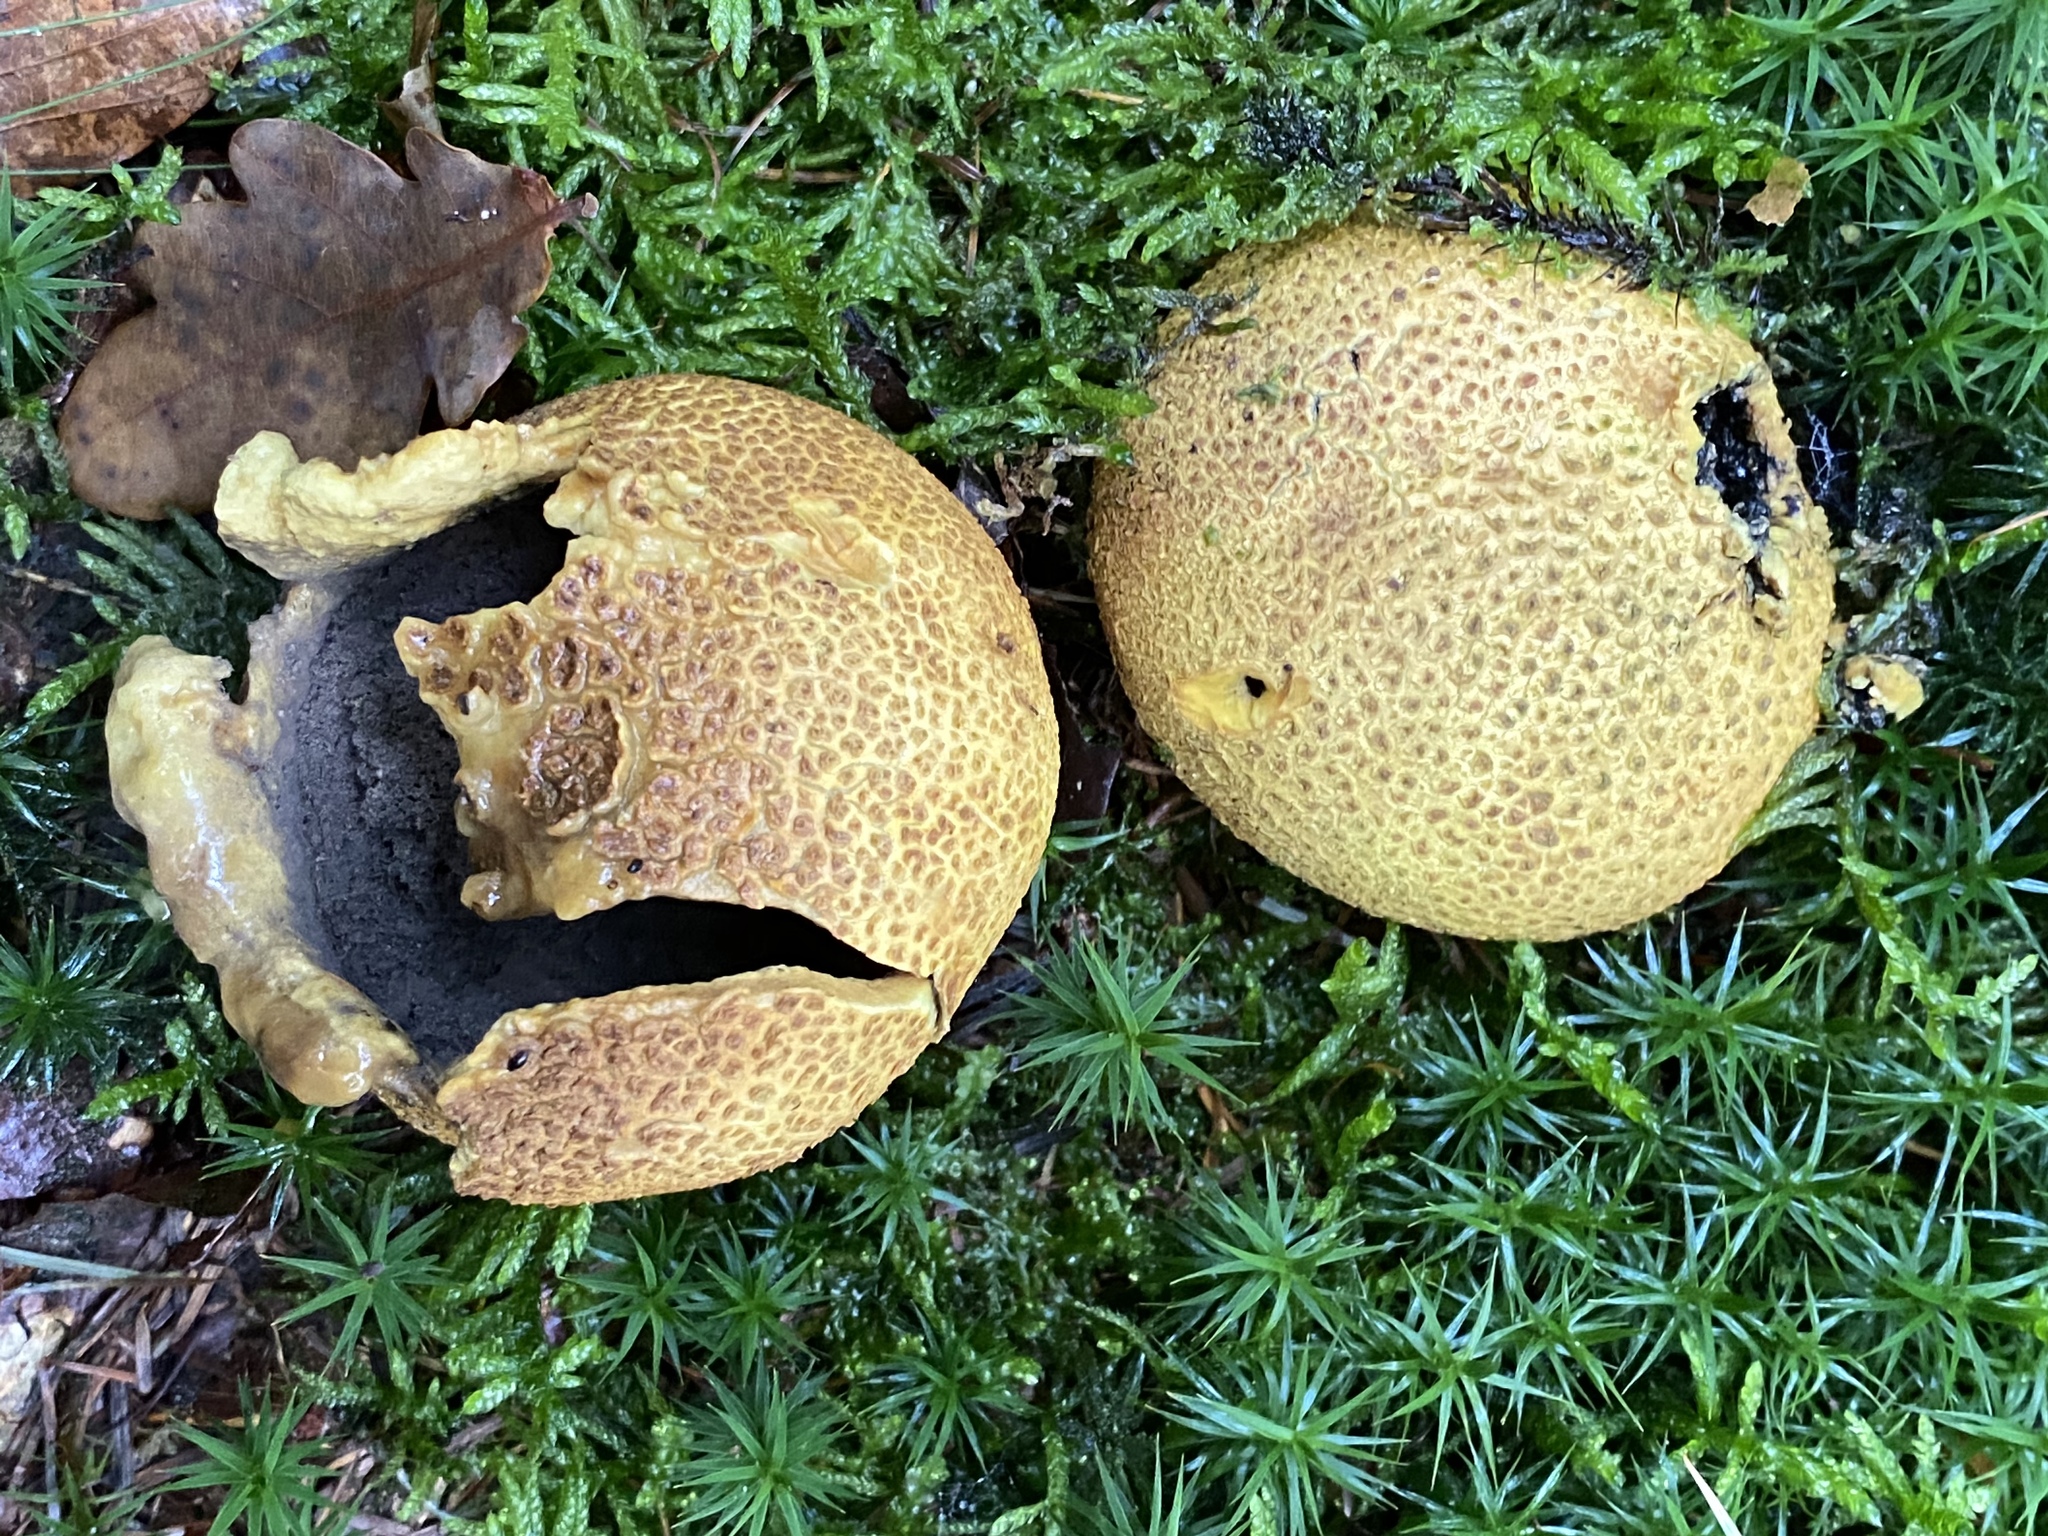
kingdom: Fungi
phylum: Basidiomycota
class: Agaricomycetes
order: Boletales
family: Sclerodermataceae
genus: Scleroderma
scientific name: Scleroderma citrinum
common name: Common earthball
